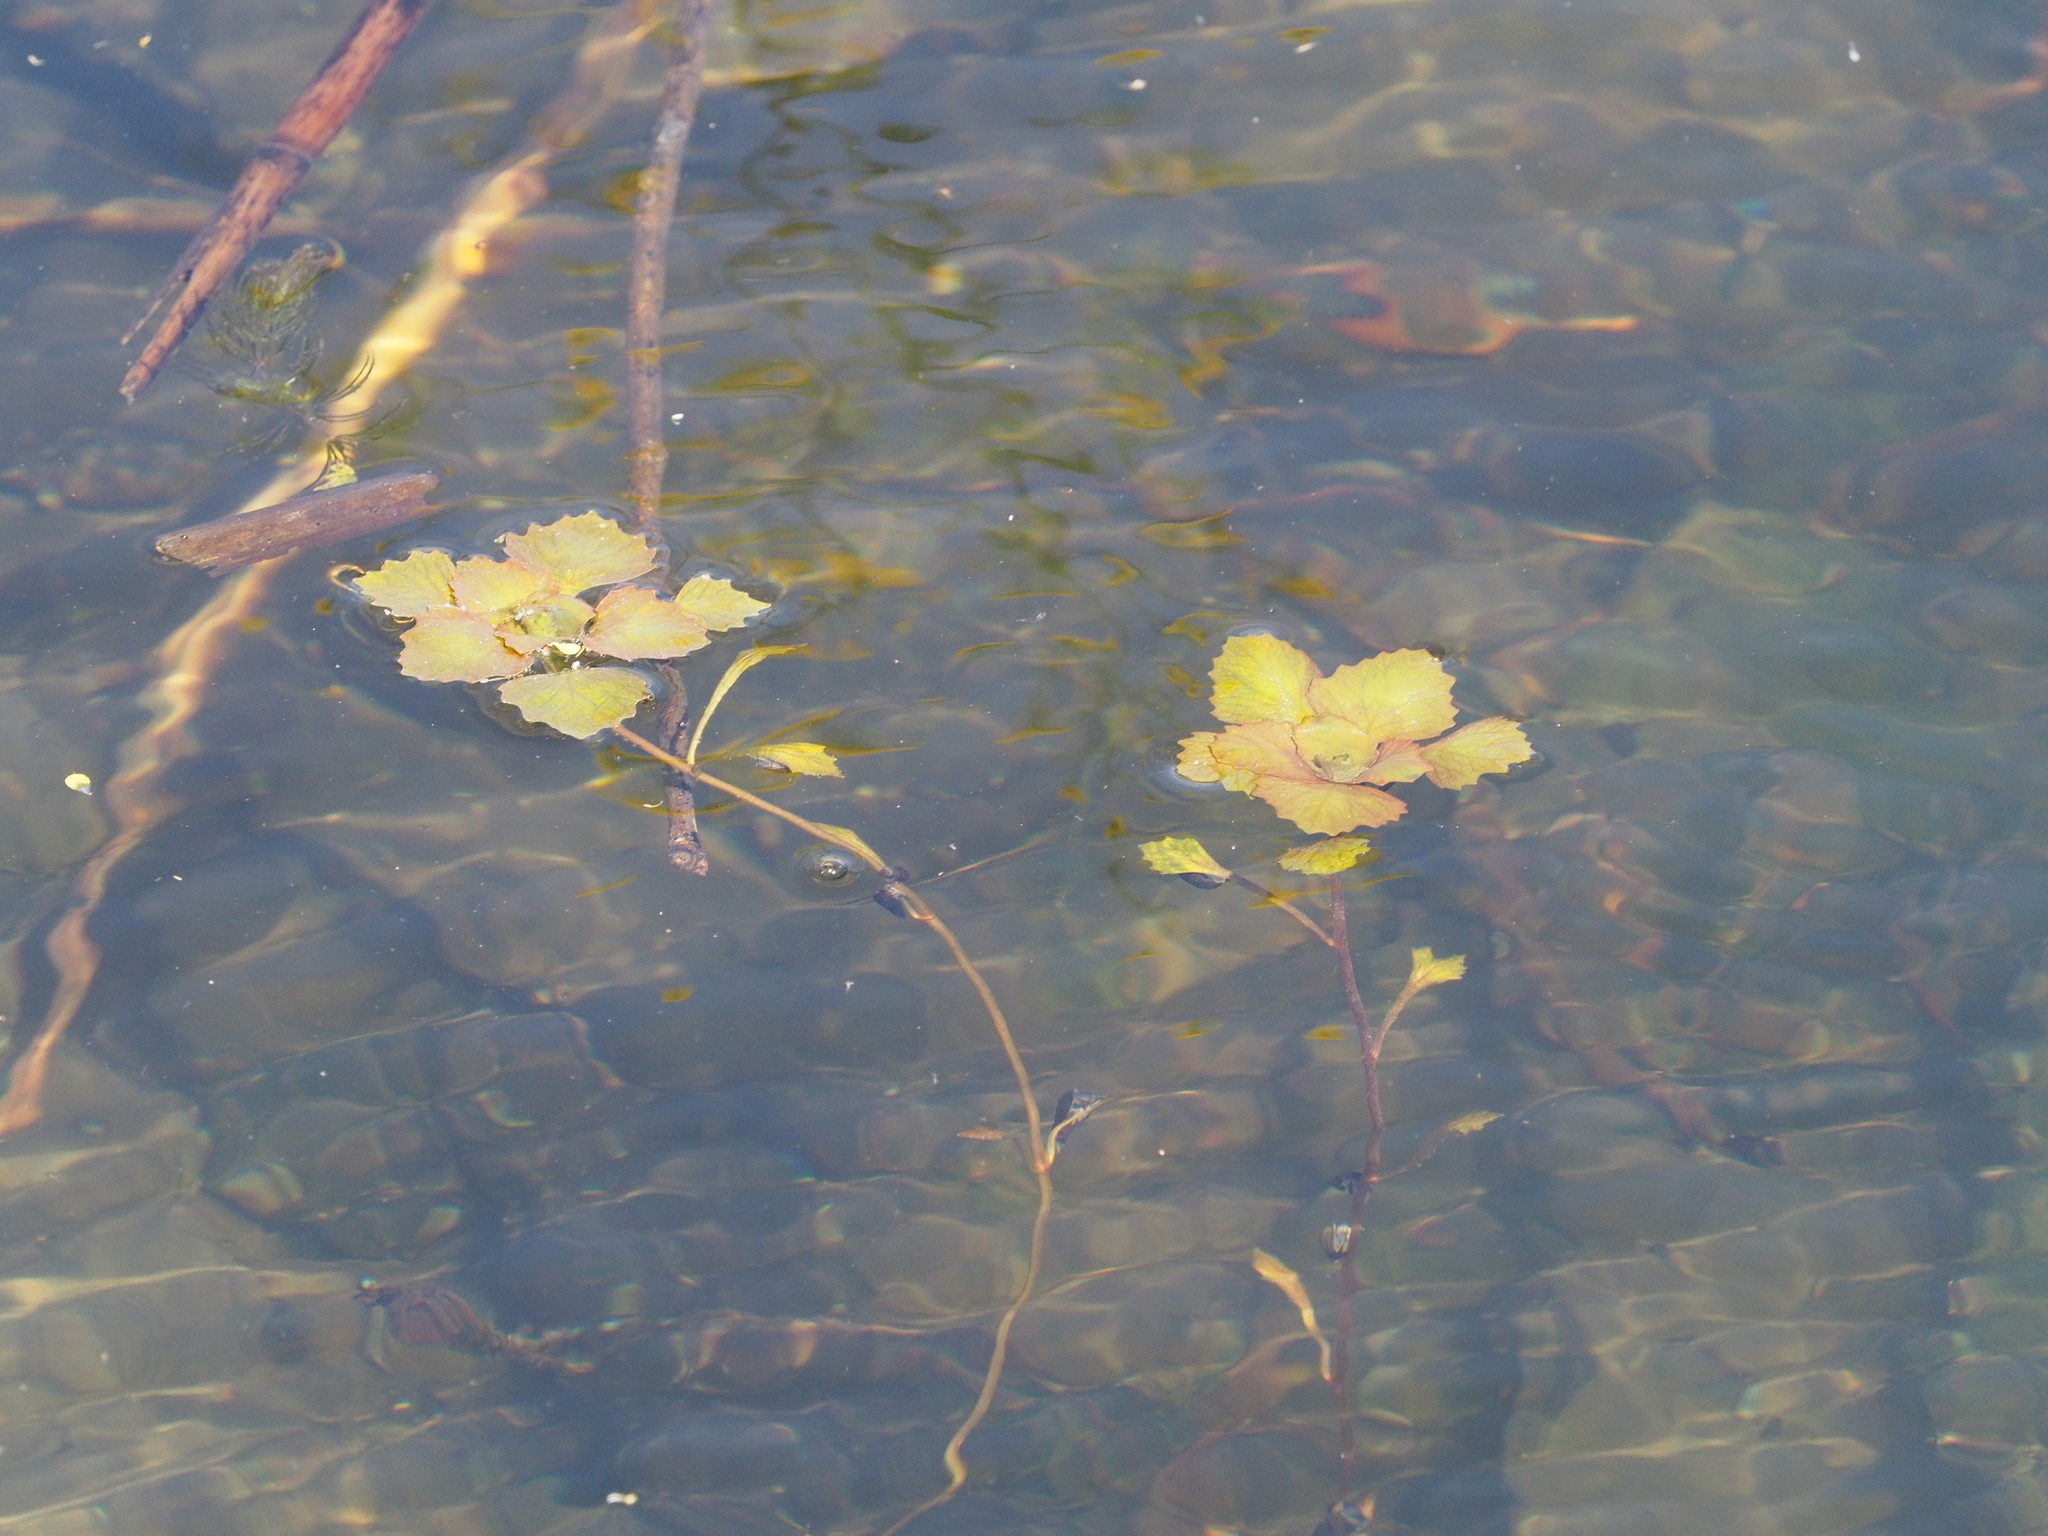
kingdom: Plantae
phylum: Tracheophyta
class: Magnoliopsida
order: Myrtales
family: Lythraceae
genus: Trapa
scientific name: Trapa natans
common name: Water chestnut
